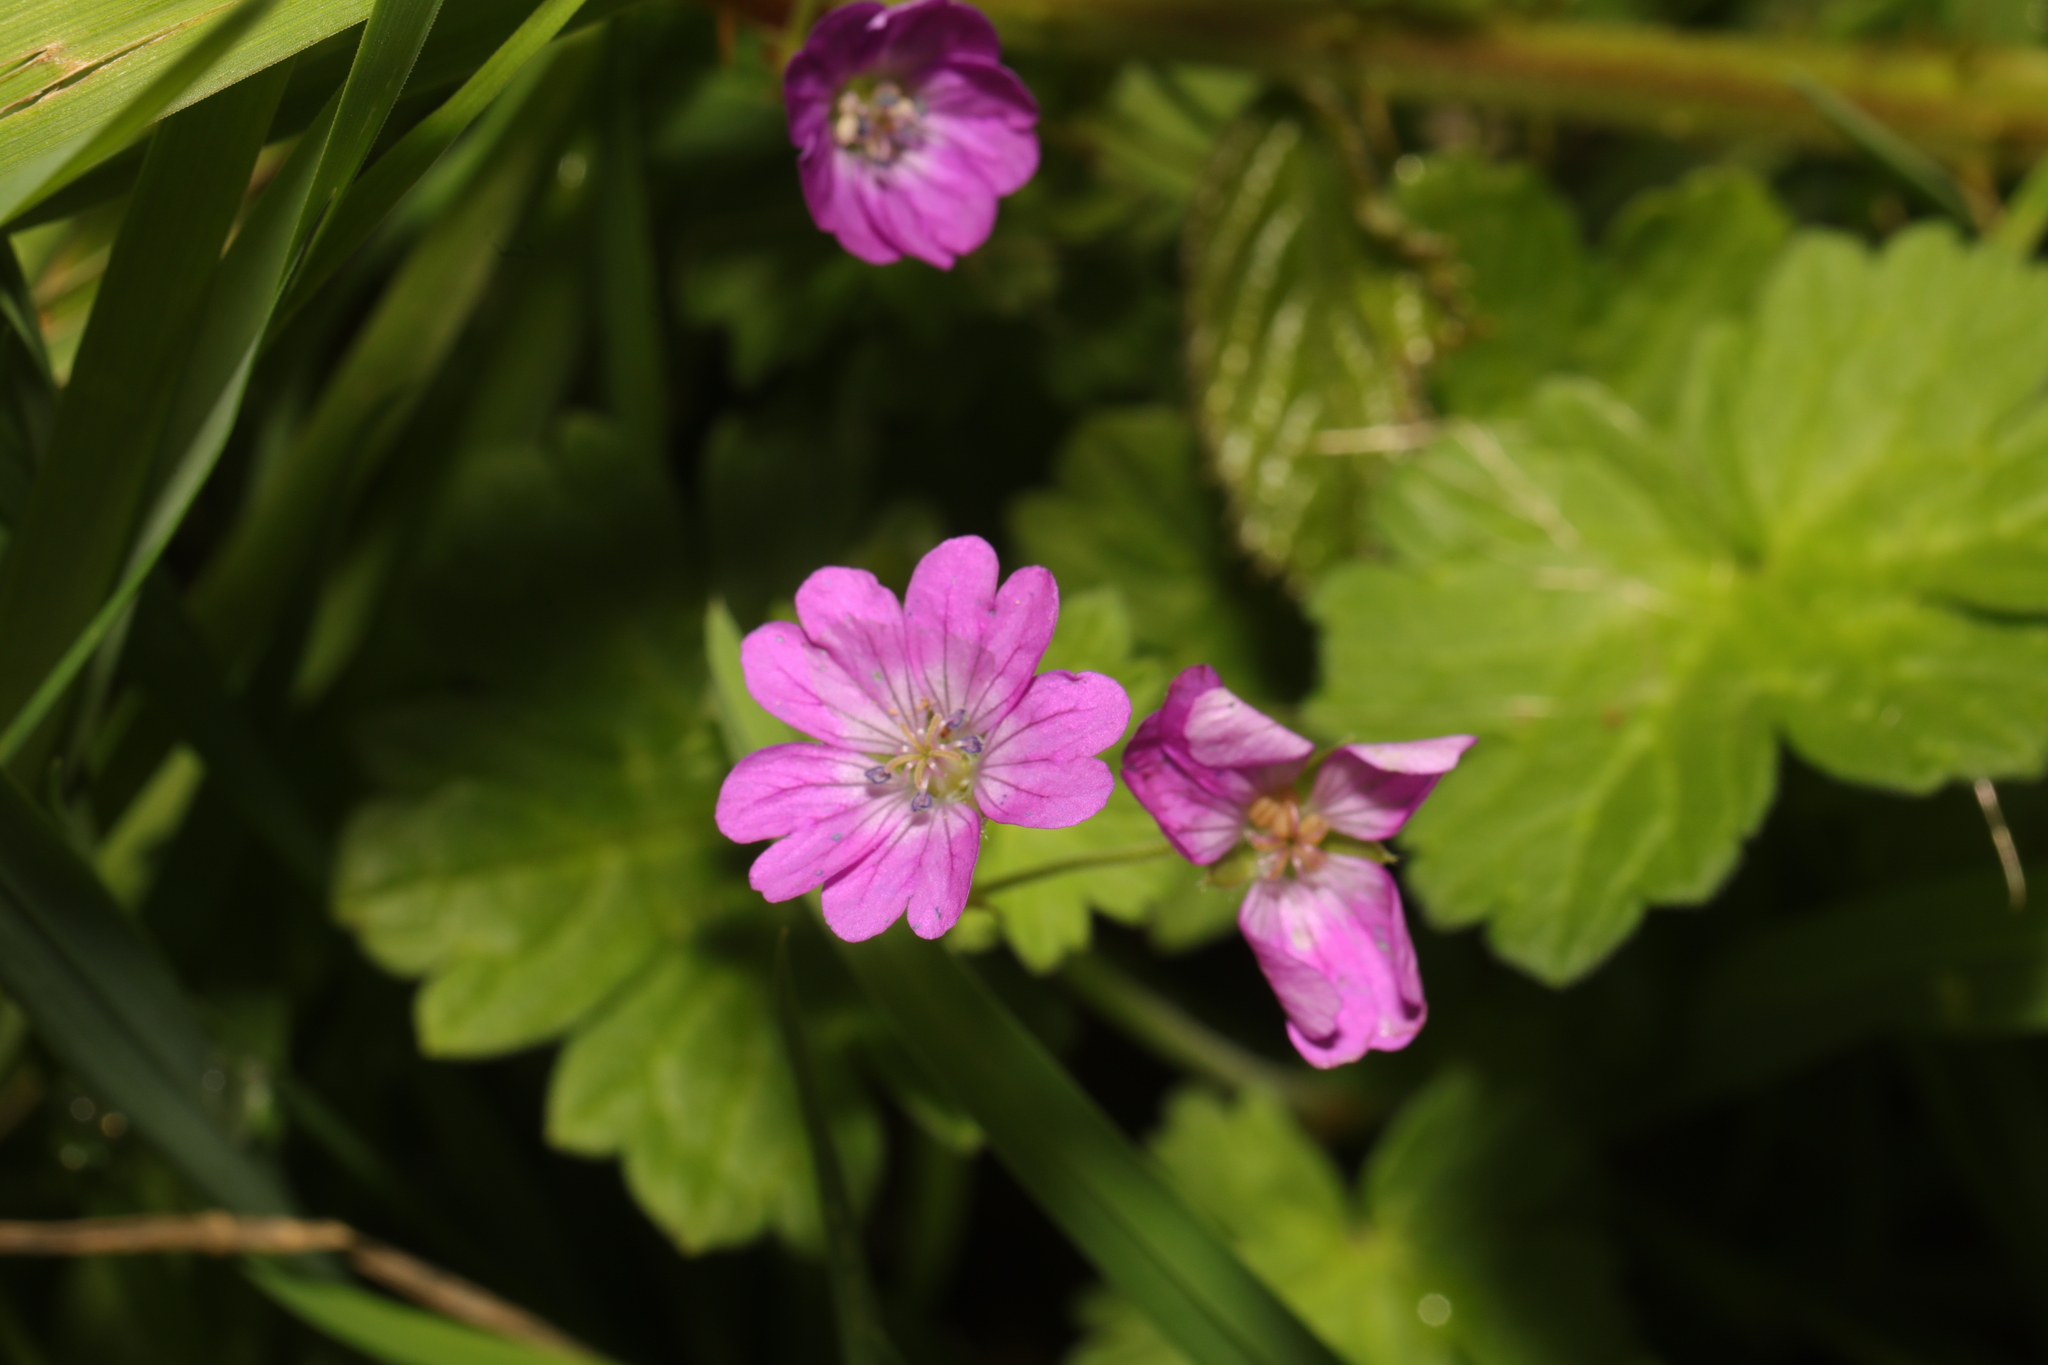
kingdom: Plantae
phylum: Tracheophyta
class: Magnoliopsida
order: Geraniales
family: Geraniaceae
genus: Geranium
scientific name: Geranium pyrenaicum
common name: Hedgerow crane's-bill
